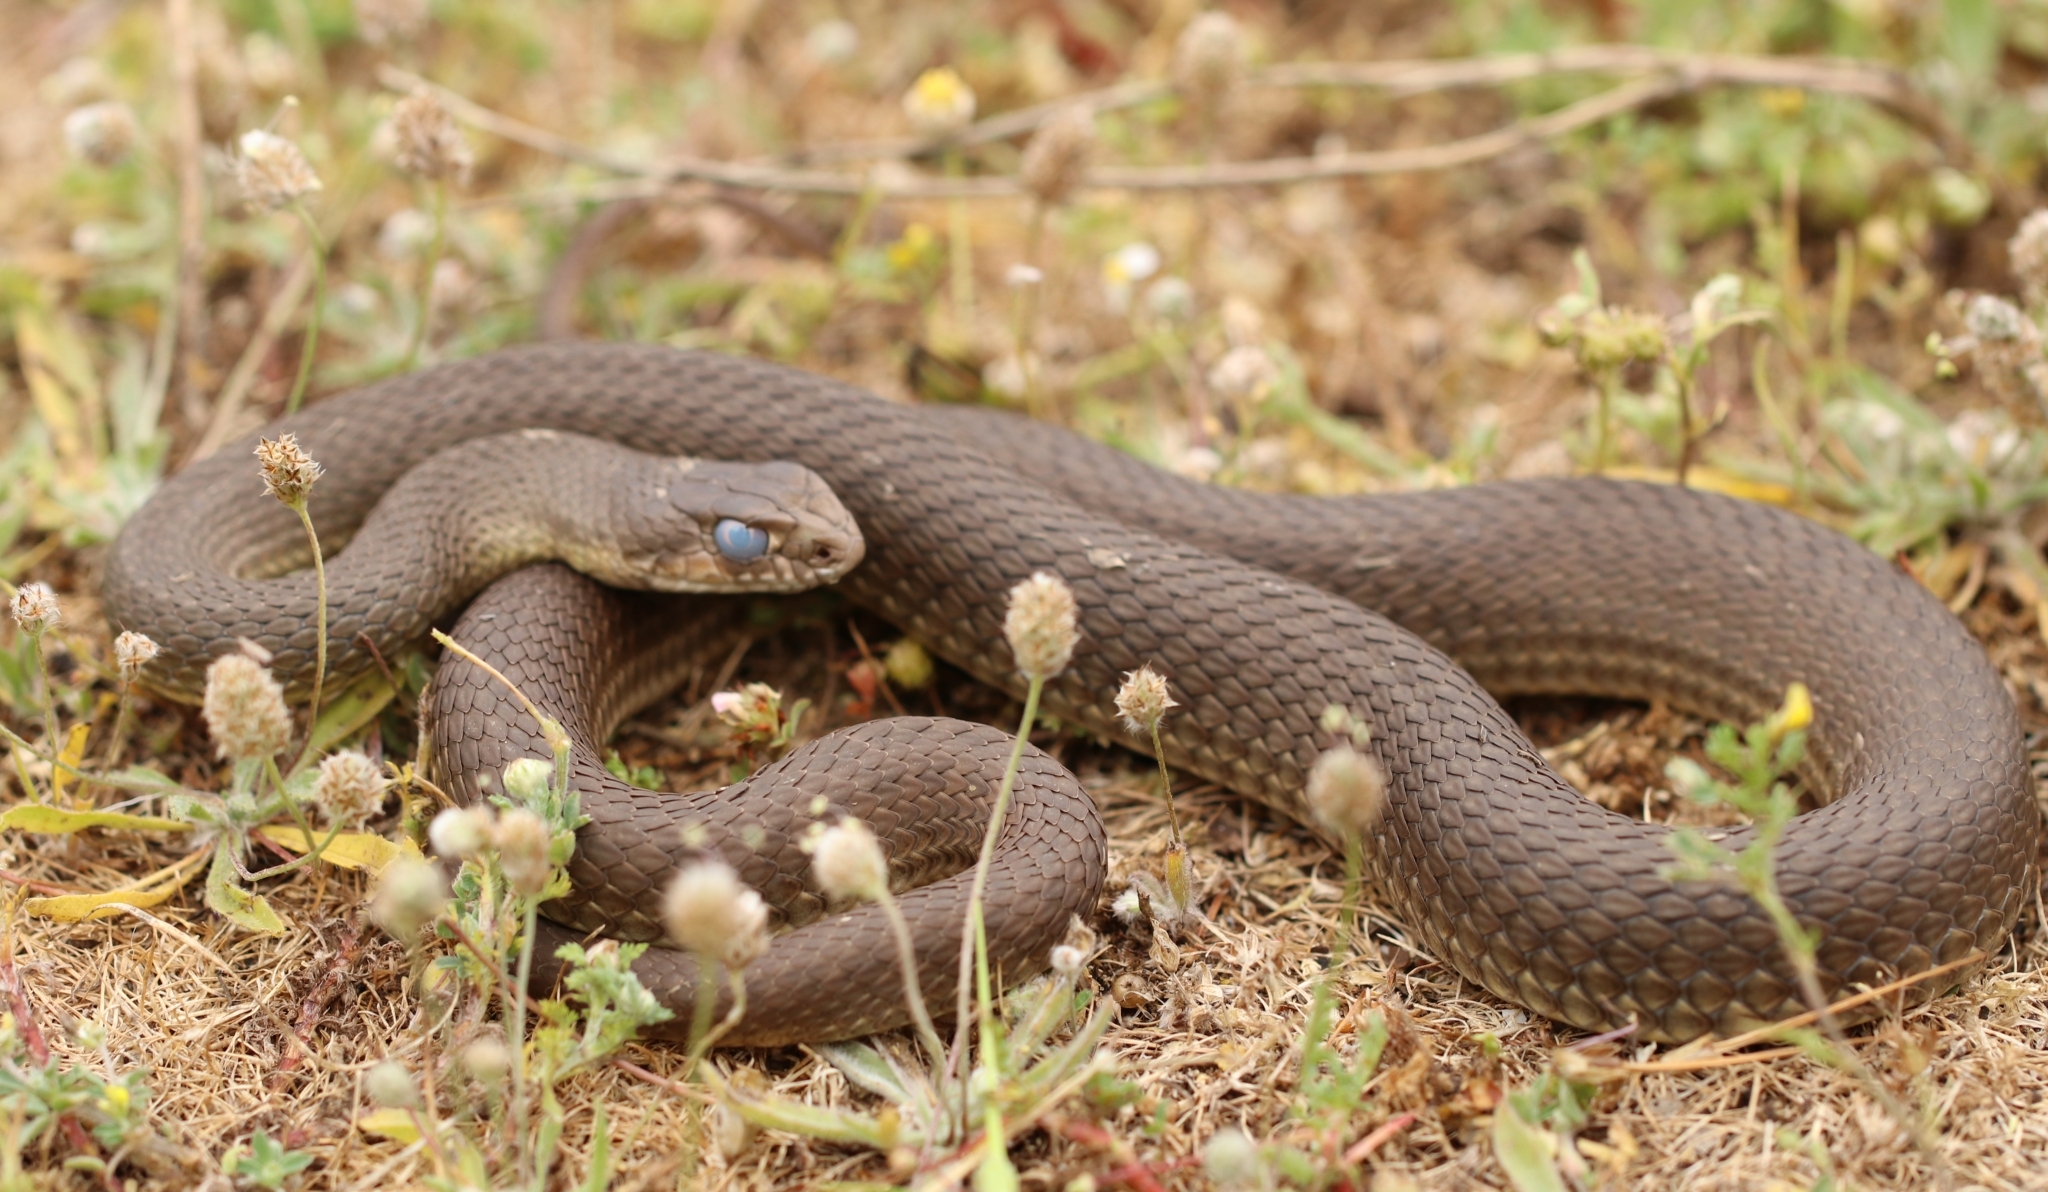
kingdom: Animalia
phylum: Chordata
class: Squamata
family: Psammophiidae
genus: Malpolon
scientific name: Malpolon insignitus
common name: Eastern montpellier snake
